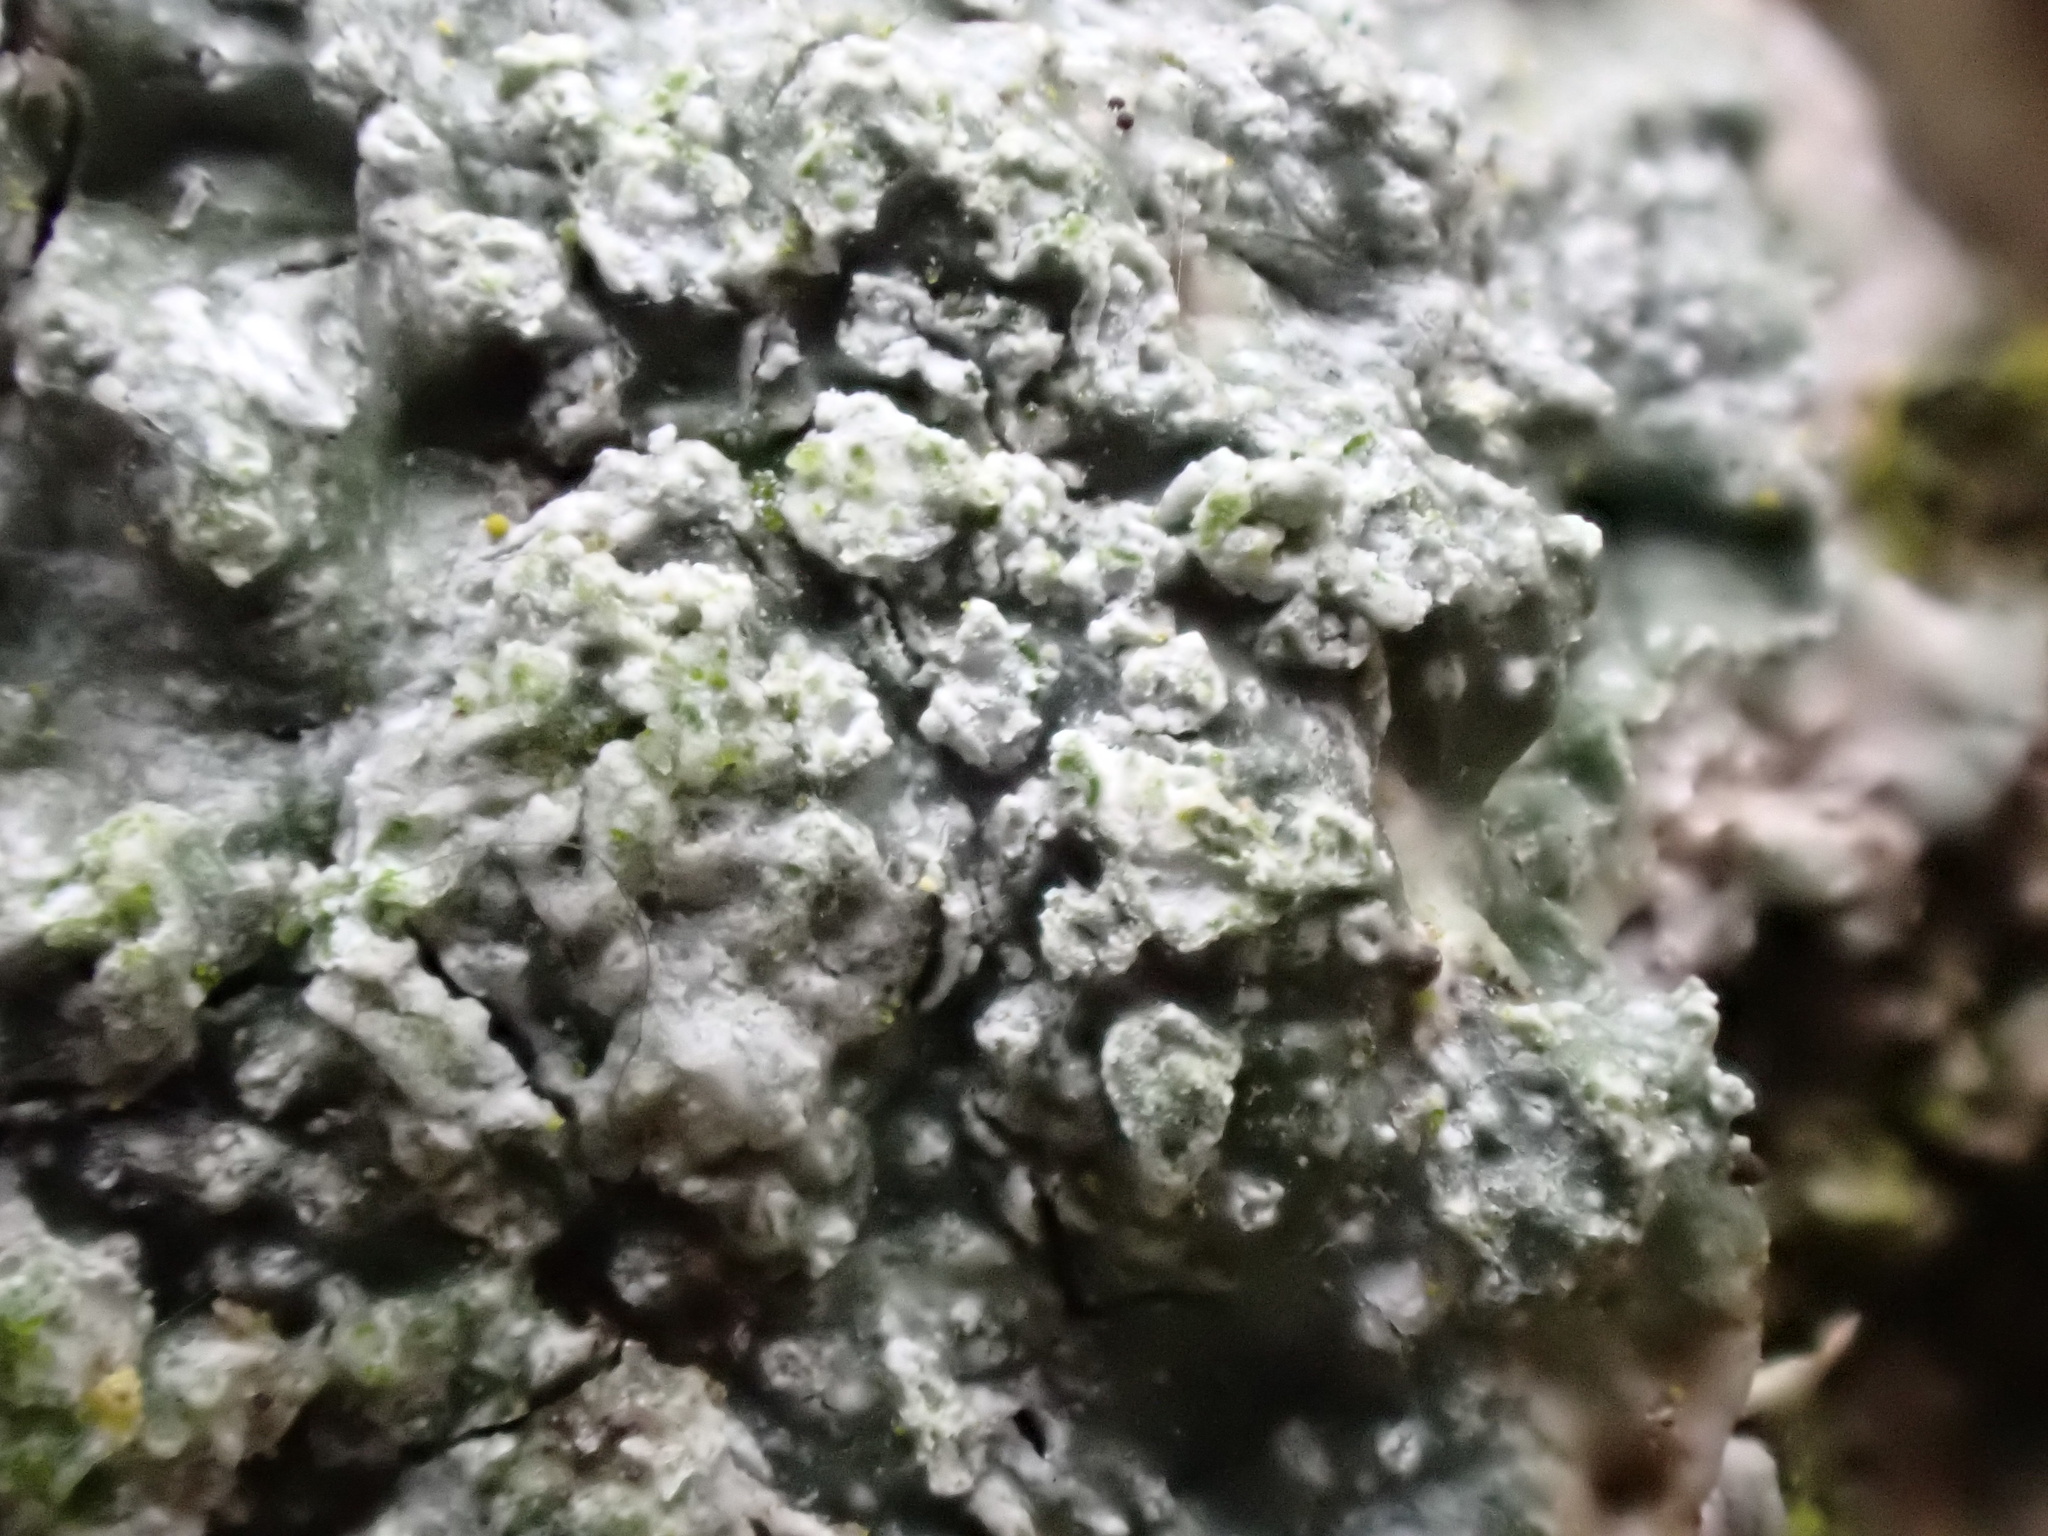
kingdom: Fungi
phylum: Ascomycota
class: Lecanoromycetes
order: Pertusariales
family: Pertusariaceae
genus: Lepra
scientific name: Lepra amara
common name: Bitter wart lichen
